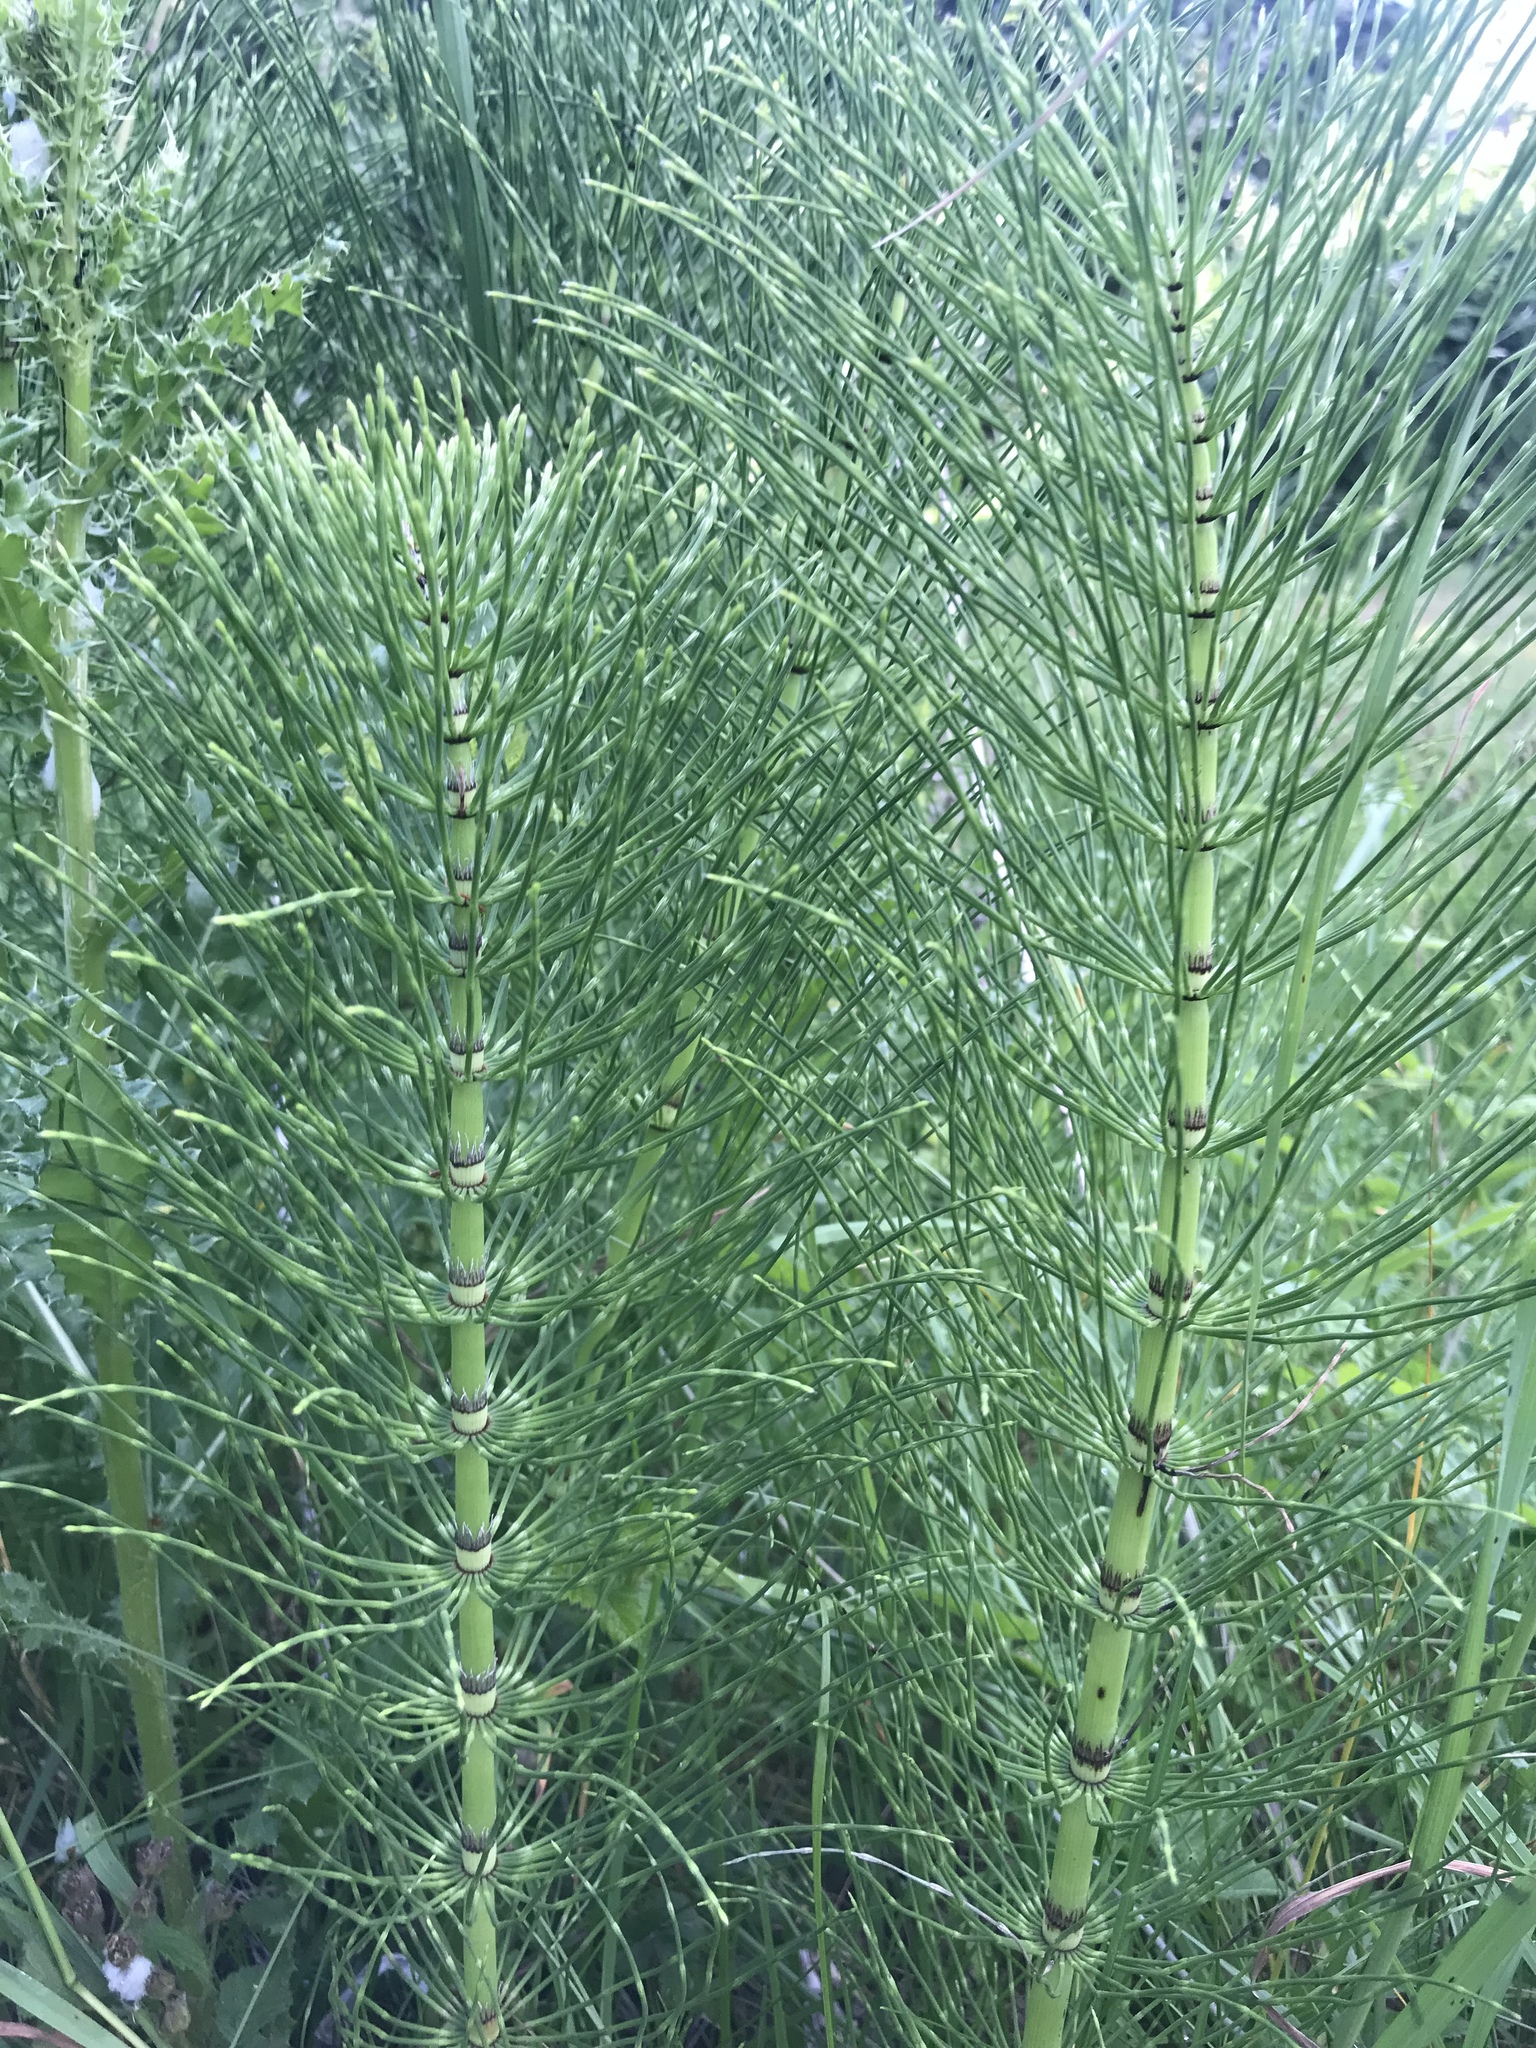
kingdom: Plantae
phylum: Tracheophyta
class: Polypodiopsida
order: Equisetales
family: Equisetaceae
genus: Equisetum
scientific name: Equisetum telmateia
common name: Great horsetail
